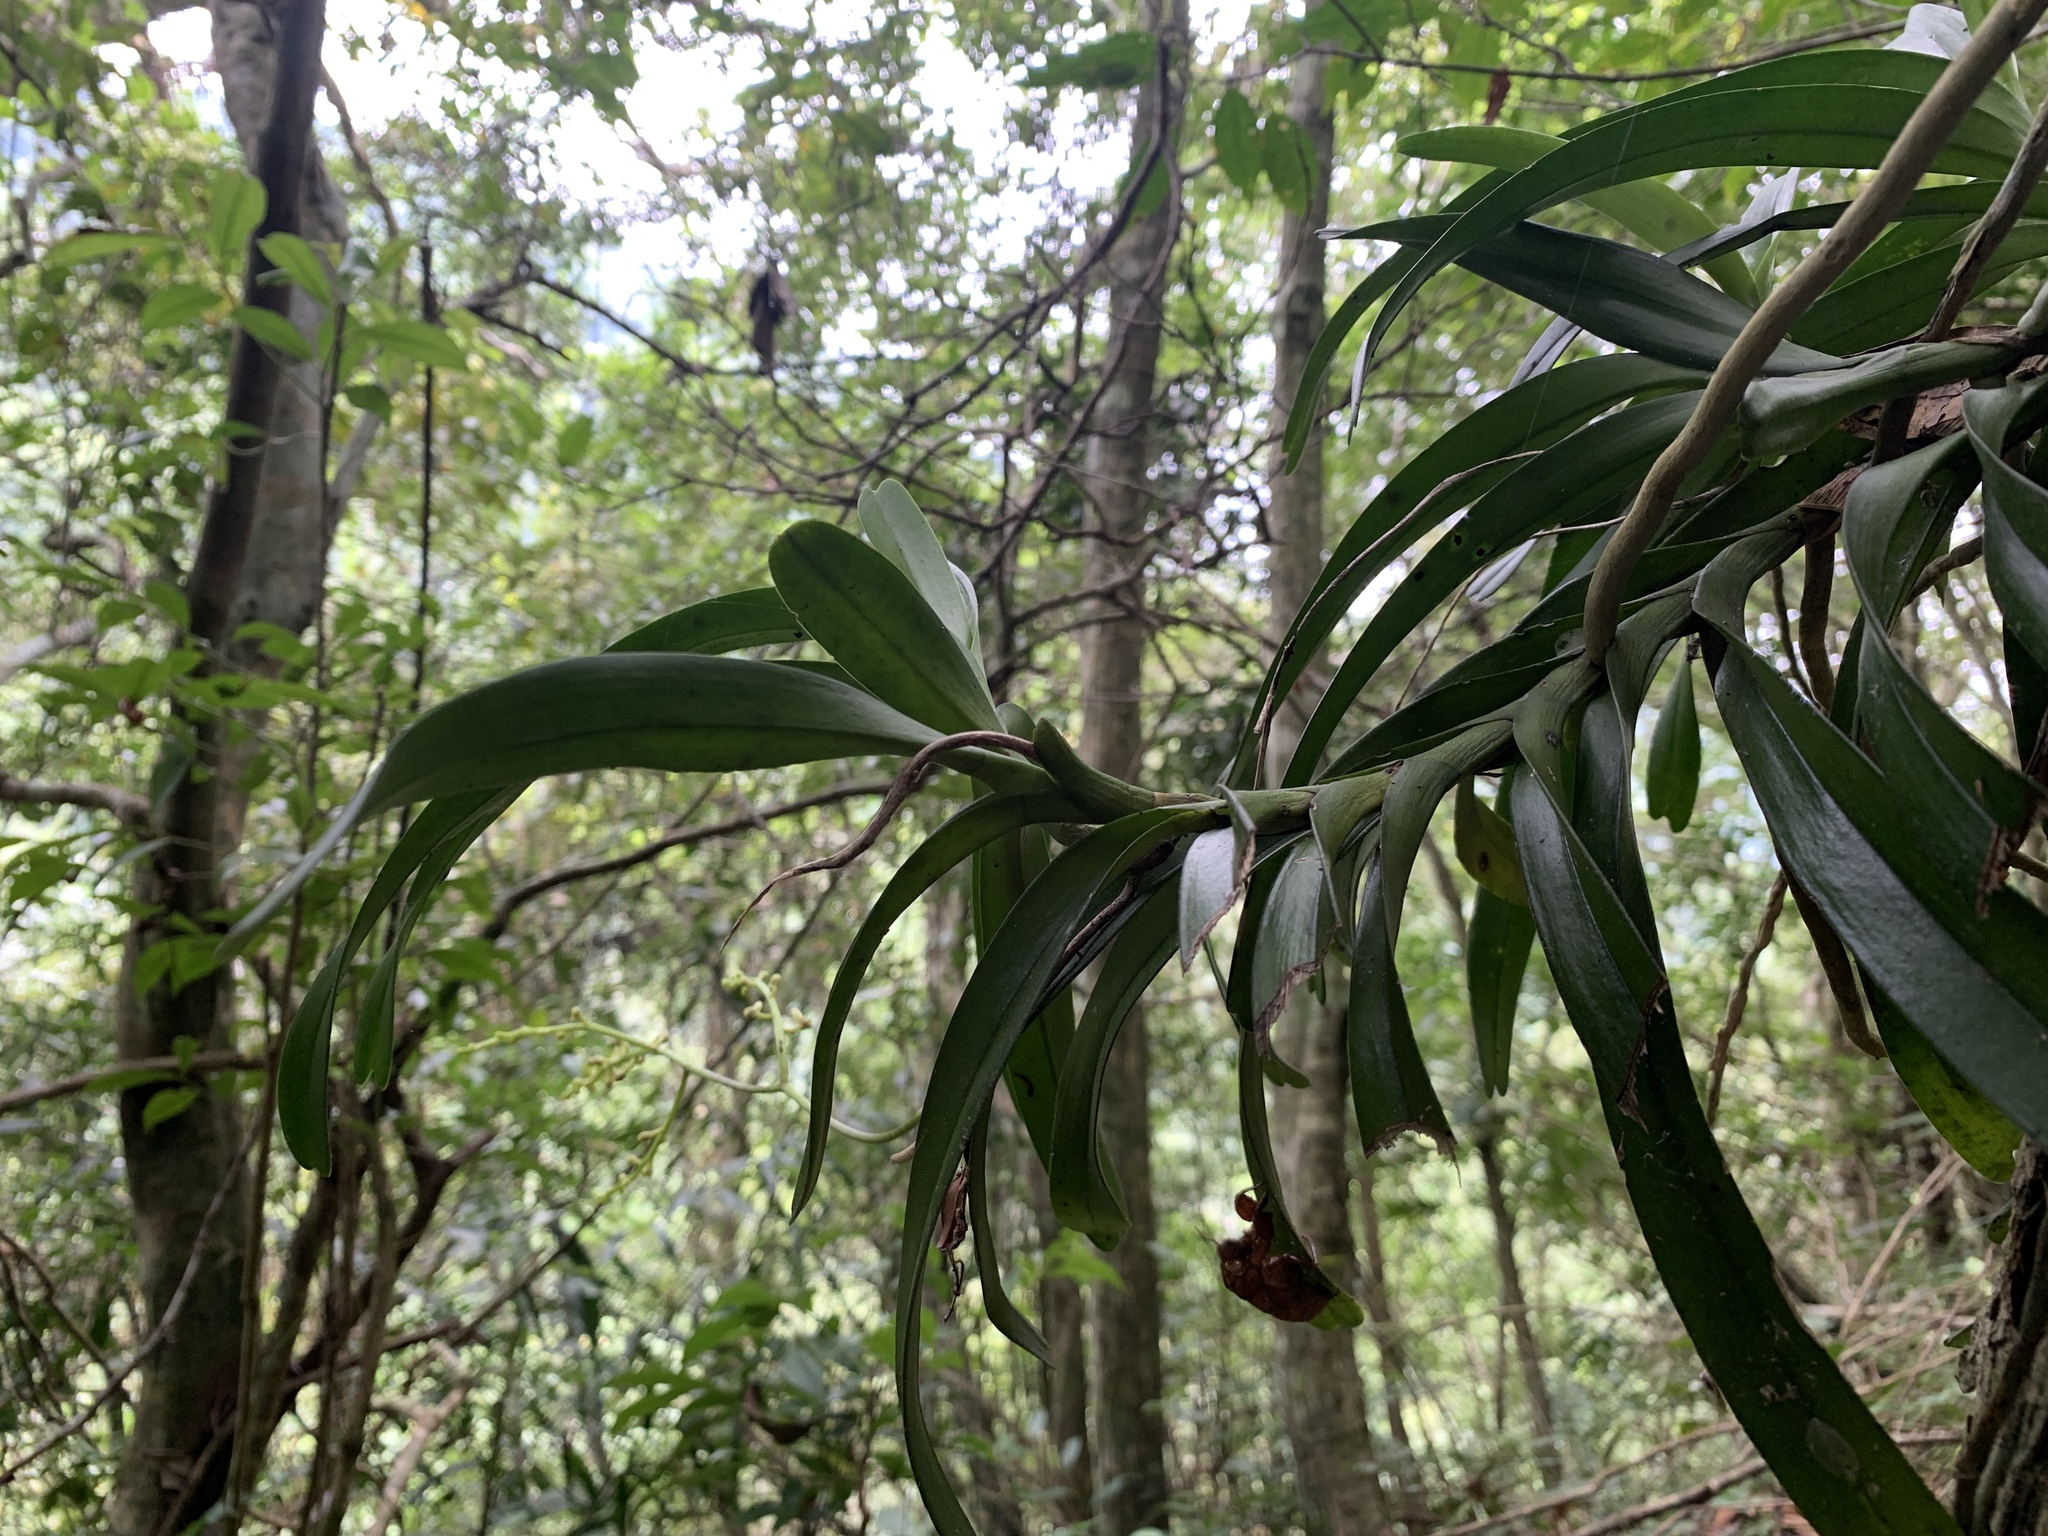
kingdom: Plantae
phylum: Tracheophyta
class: Liliopsida
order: Asparagales
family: Orchidaceae
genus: Cleisostoma
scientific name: Cleisostoma paniculatum
